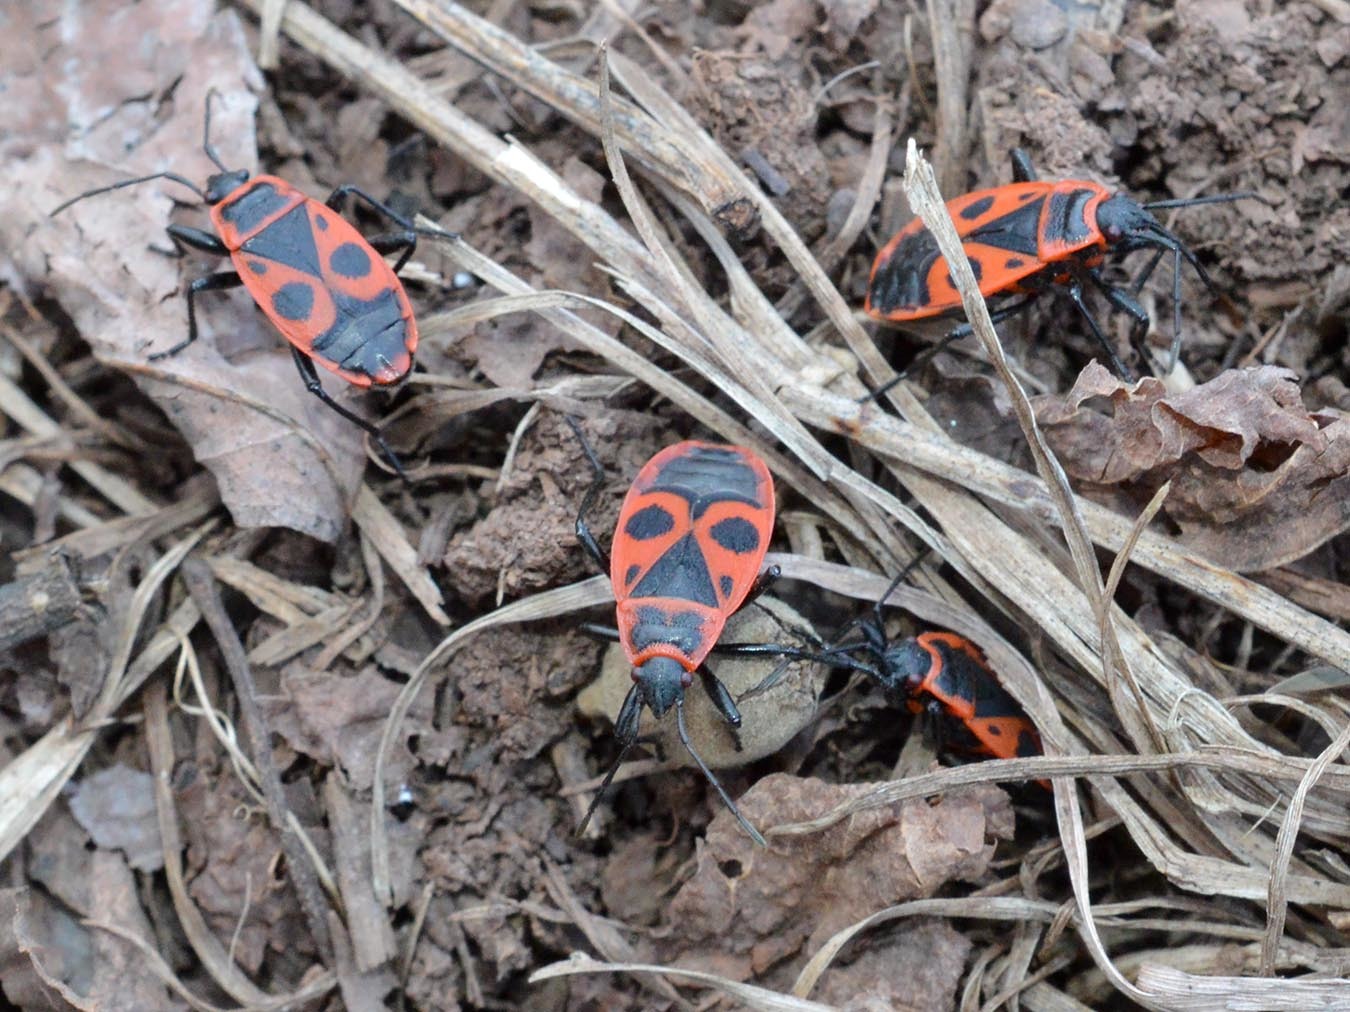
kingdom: Animalia
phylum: Arthropoda
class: Insecta
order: Hemiptera
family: Pyrrhocoridae
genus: Pyrrhocoris
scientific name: Pyrrhocoris apterus
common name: Firebug
